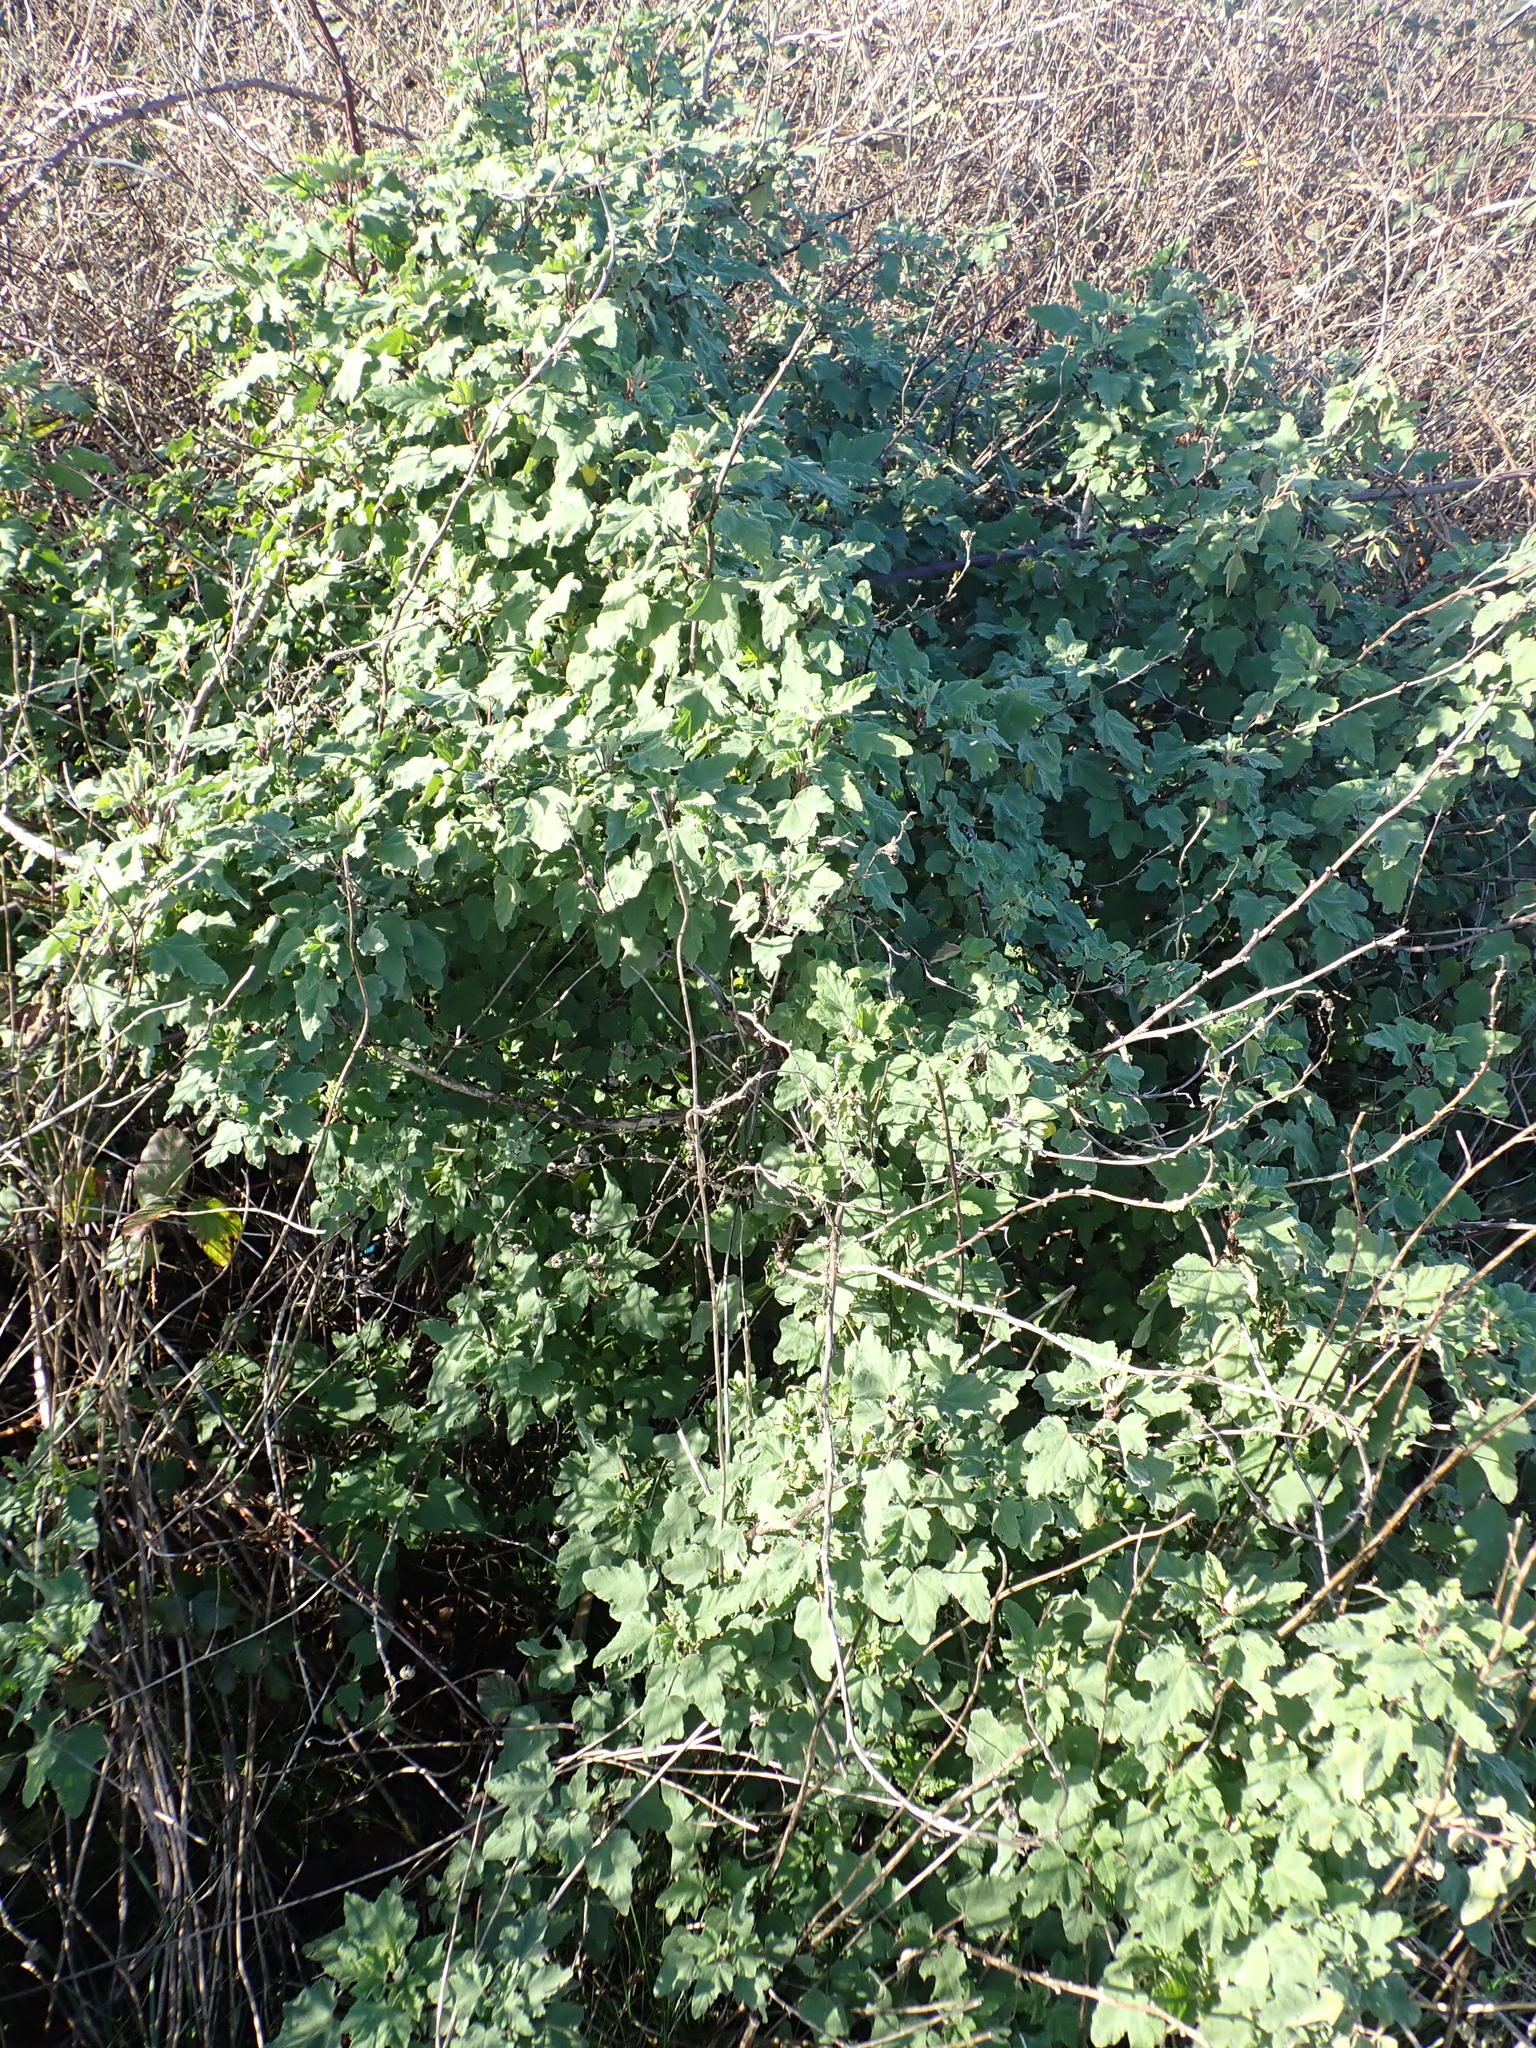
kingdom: Plantae
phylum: Tracheophyta
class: Magnoliopsida
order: Malvales
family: Malvaceae
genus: Malva
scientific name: Malva clementii
